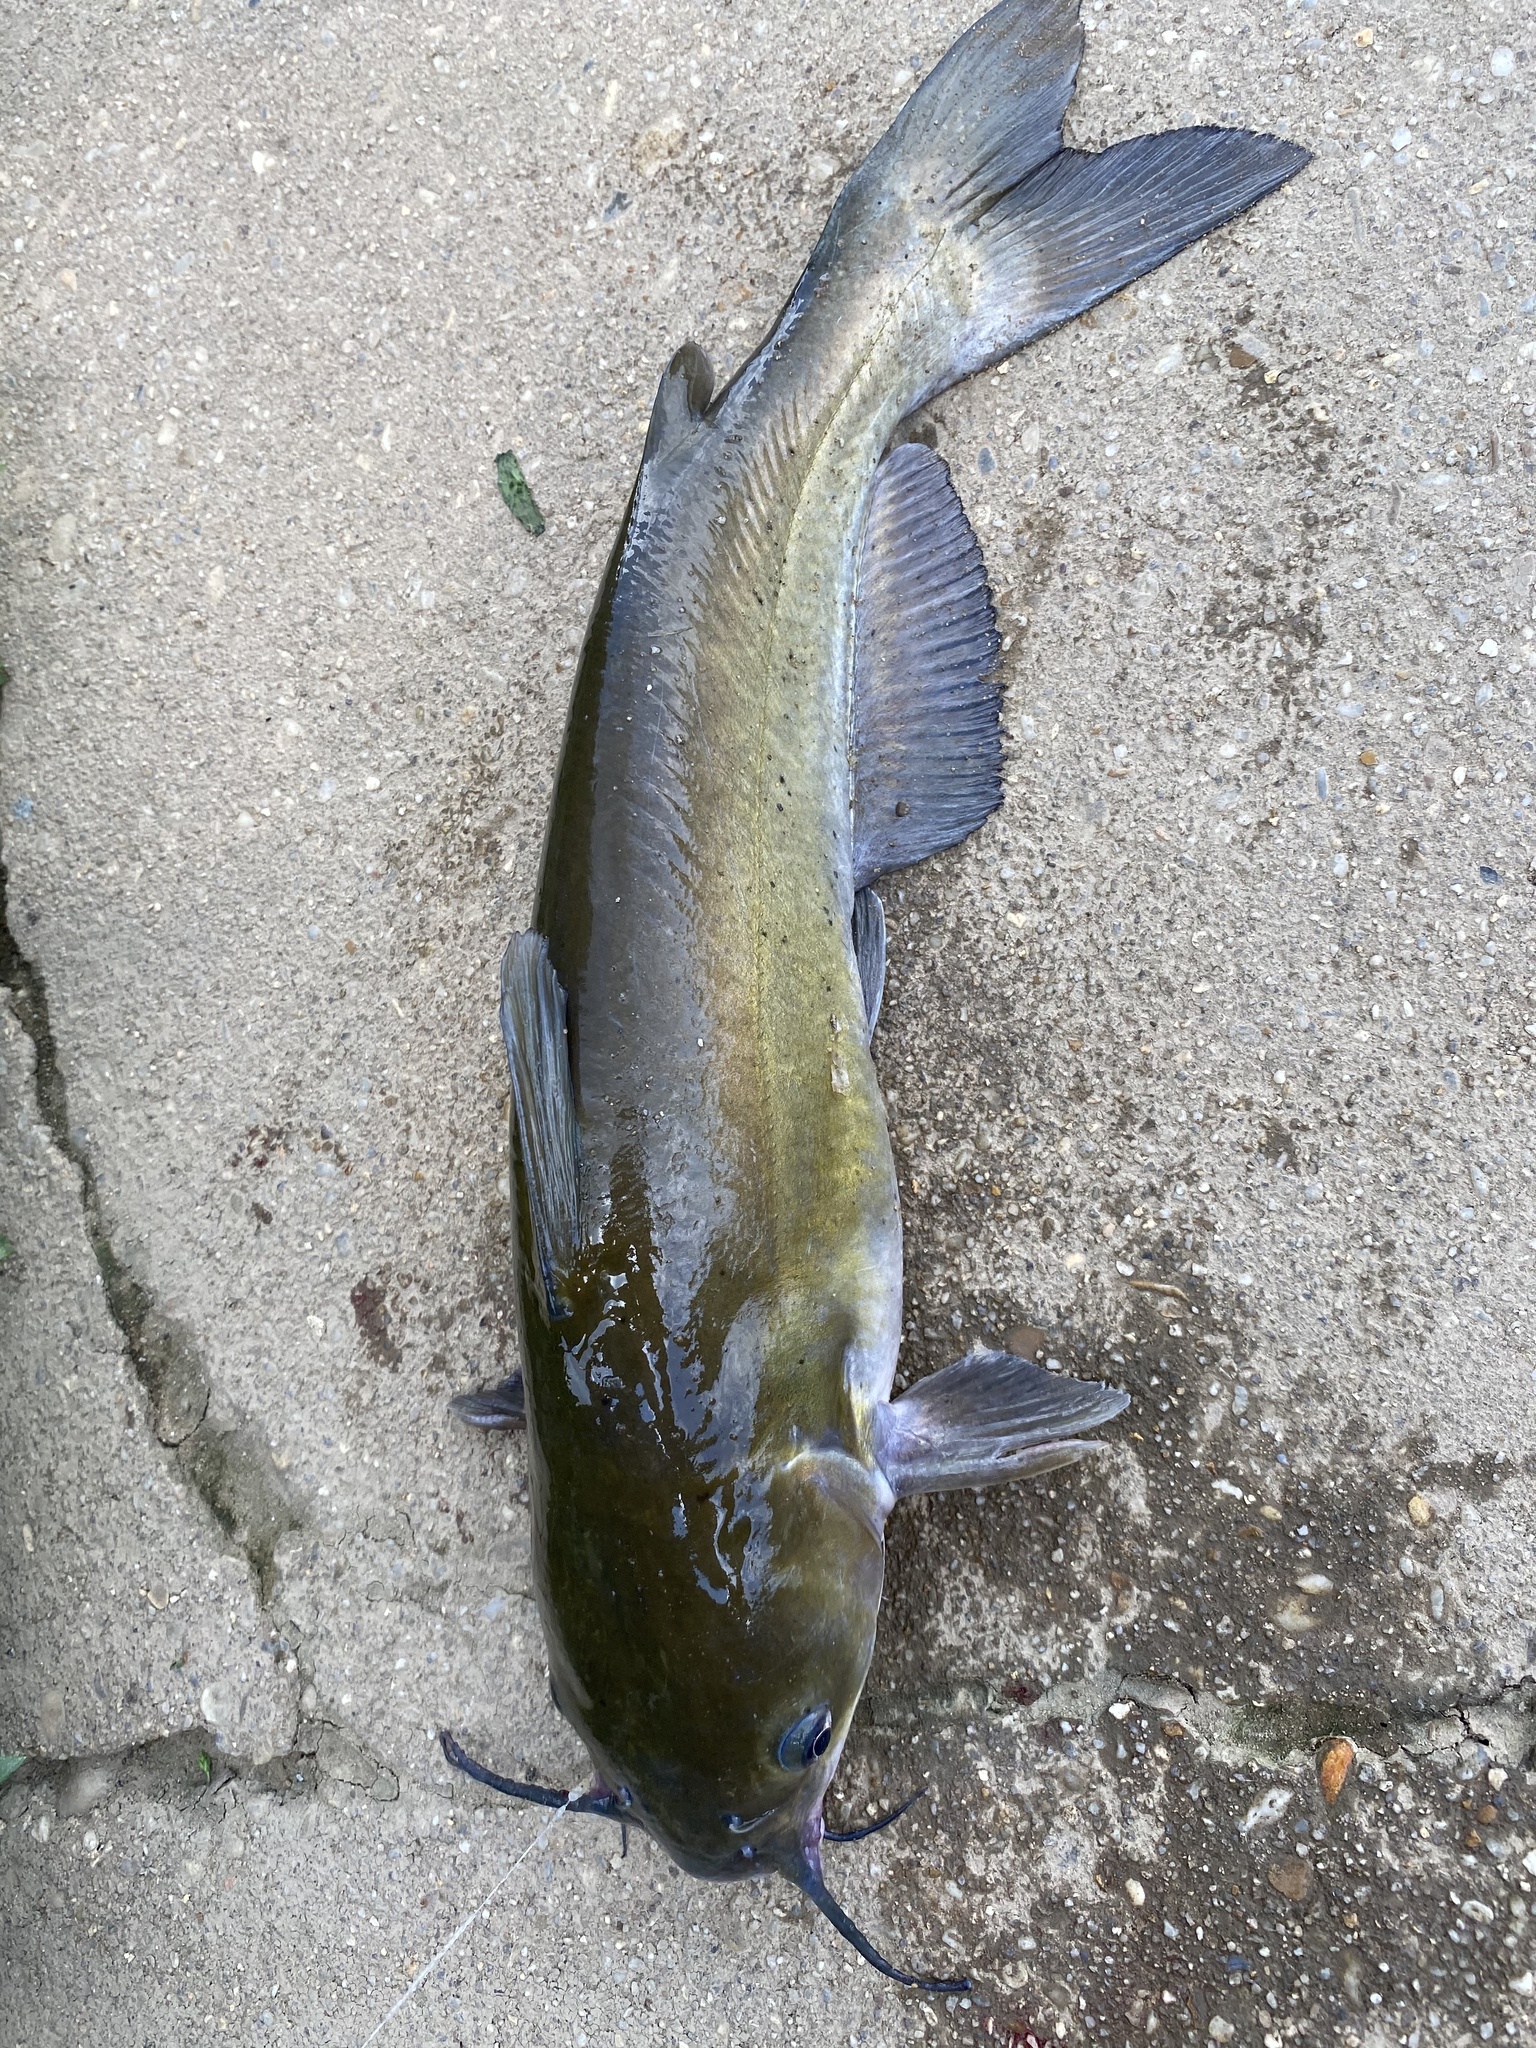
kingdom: Animalia
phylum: Chordata
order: Siluriformes
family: Ictaluridae
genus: Ictalurus
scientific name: Ictalurus punctatus
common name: Channel catfish
